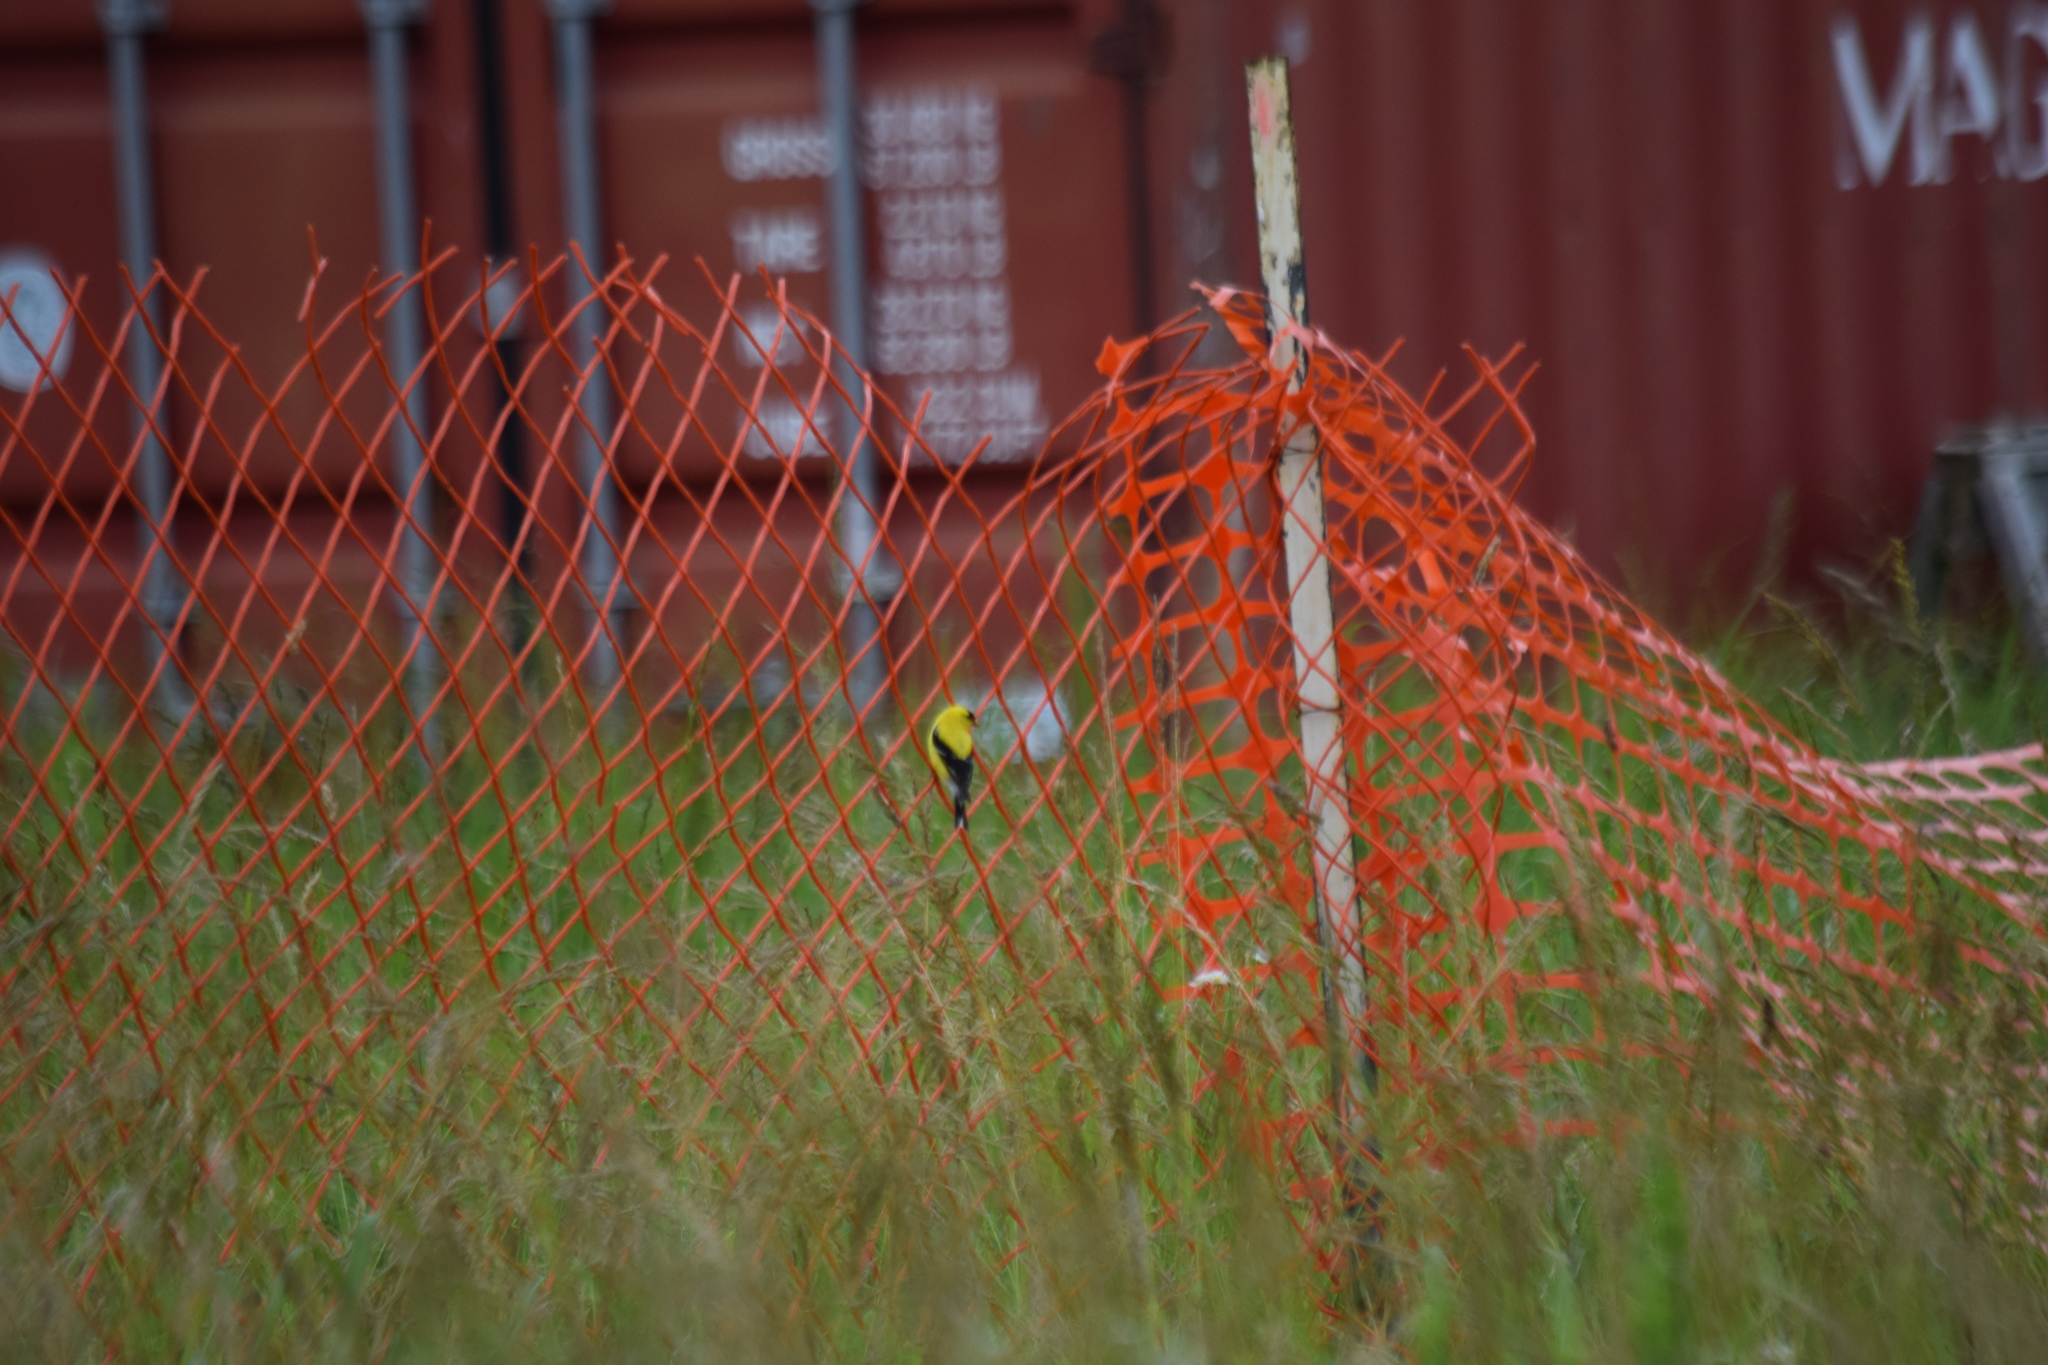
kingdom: Animalia
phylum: Chordata
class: Aves
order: Passeriformes
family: Fringillidae
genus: Spinus
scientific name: Spinus tristis
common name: American goldfinch
